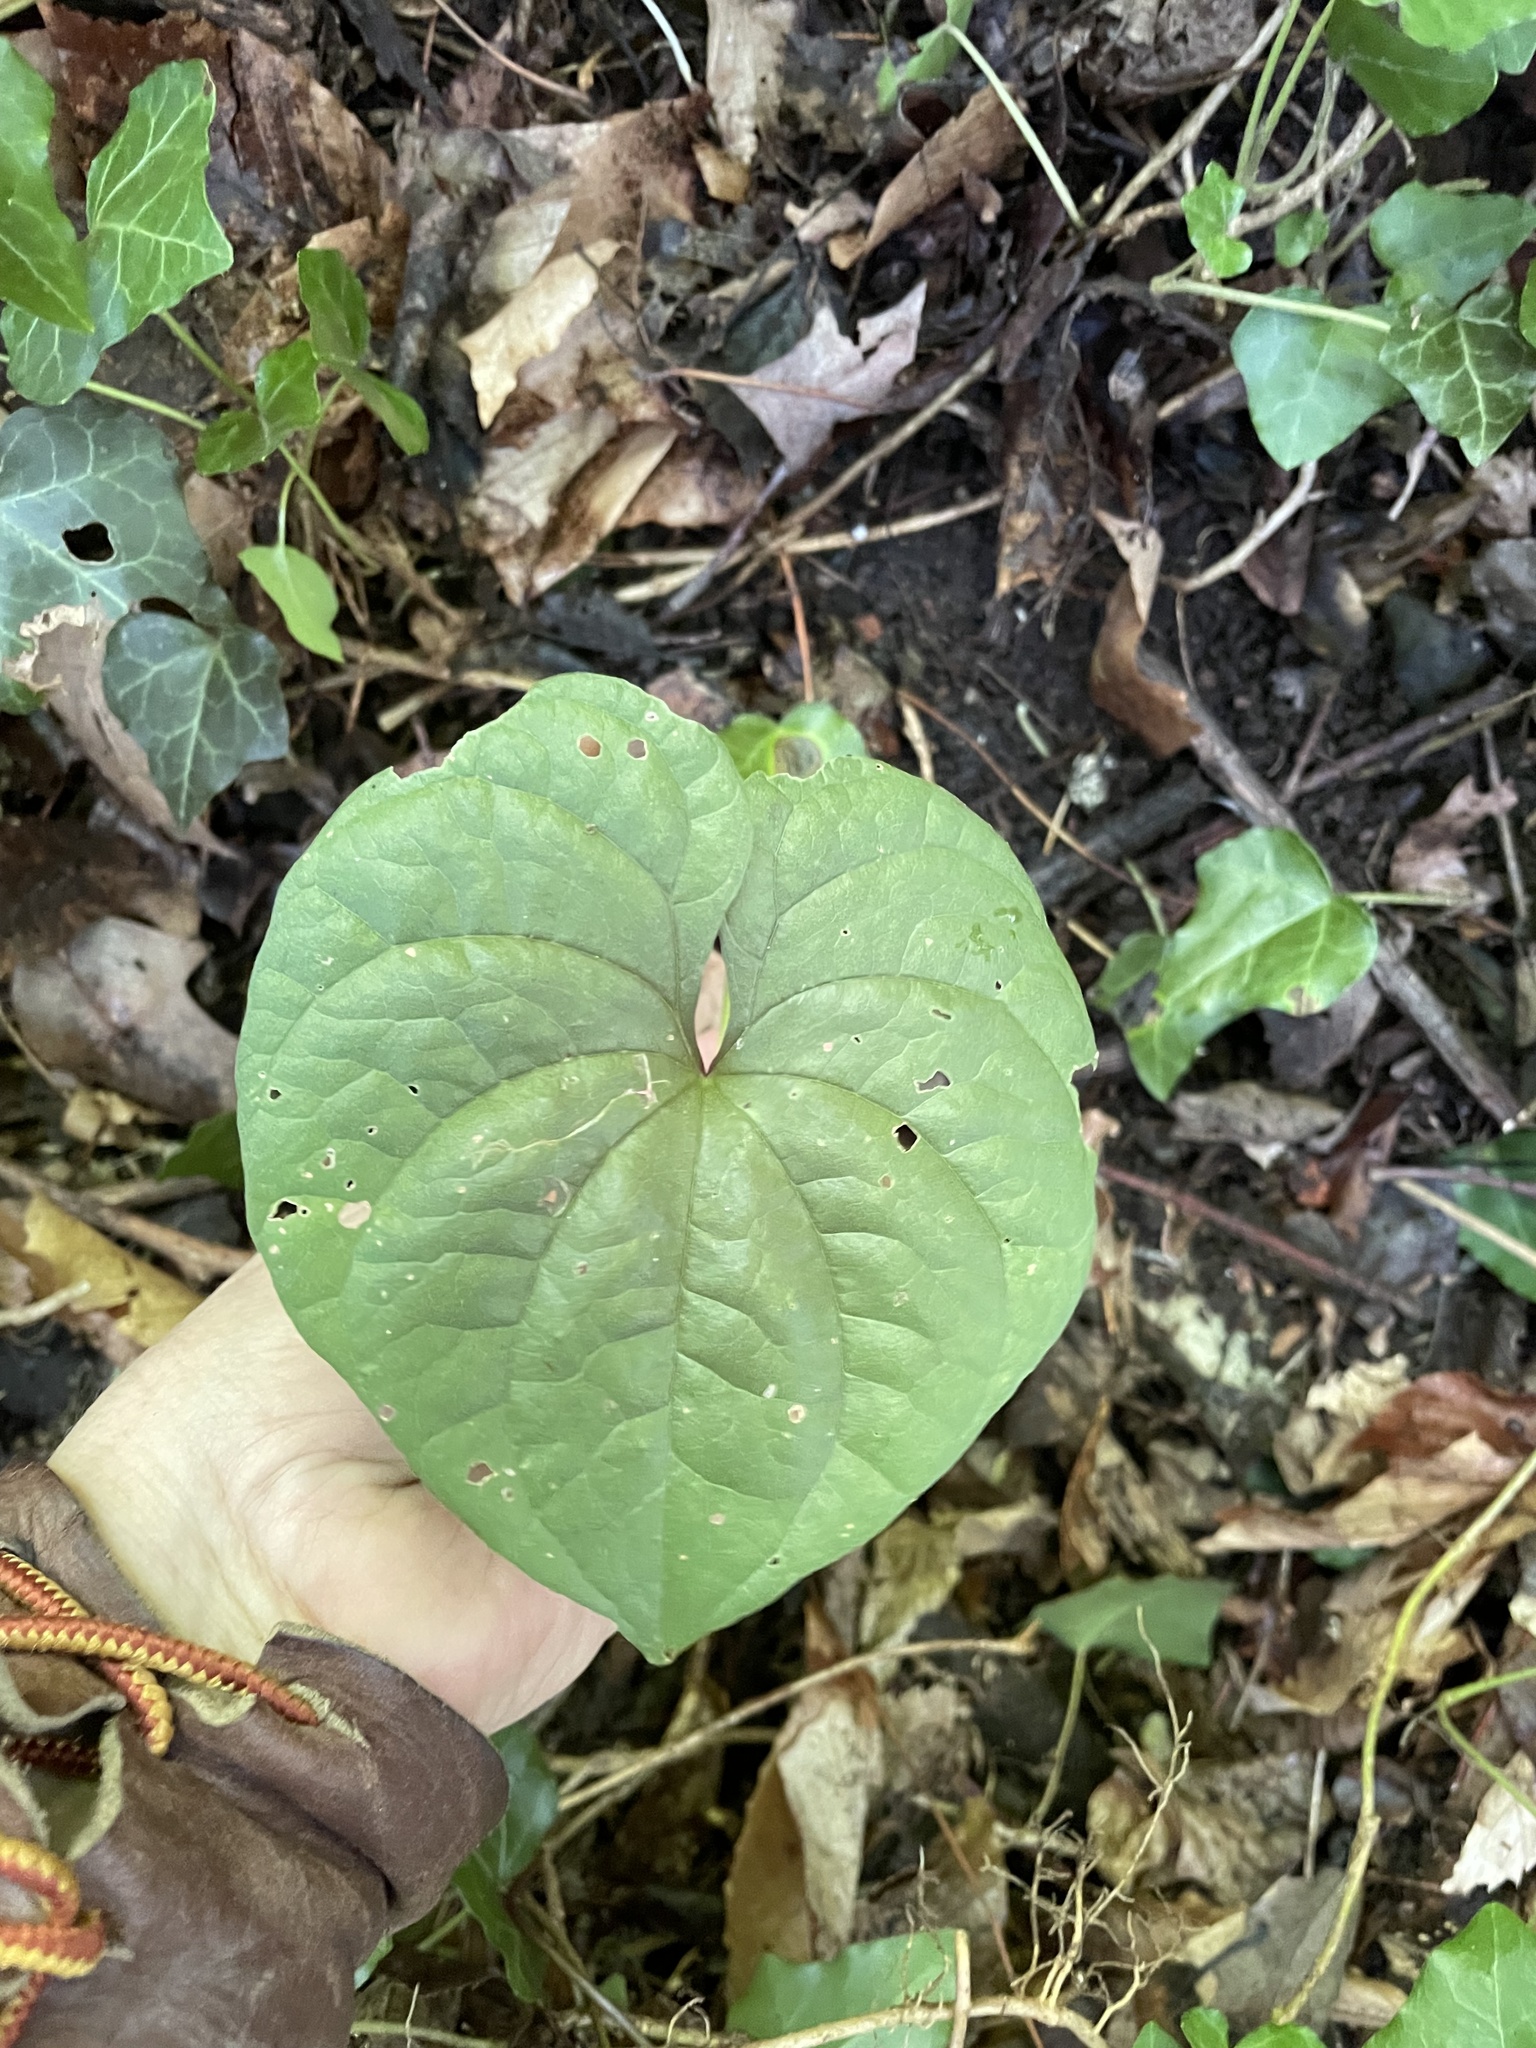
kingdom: Plantae
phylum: Tracheophyta
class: Liliopsida
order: Dioscoreales
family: Dioscoreaceae
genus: Dioscorea
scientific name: Dioscorea polystachya
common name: Chinese yam
